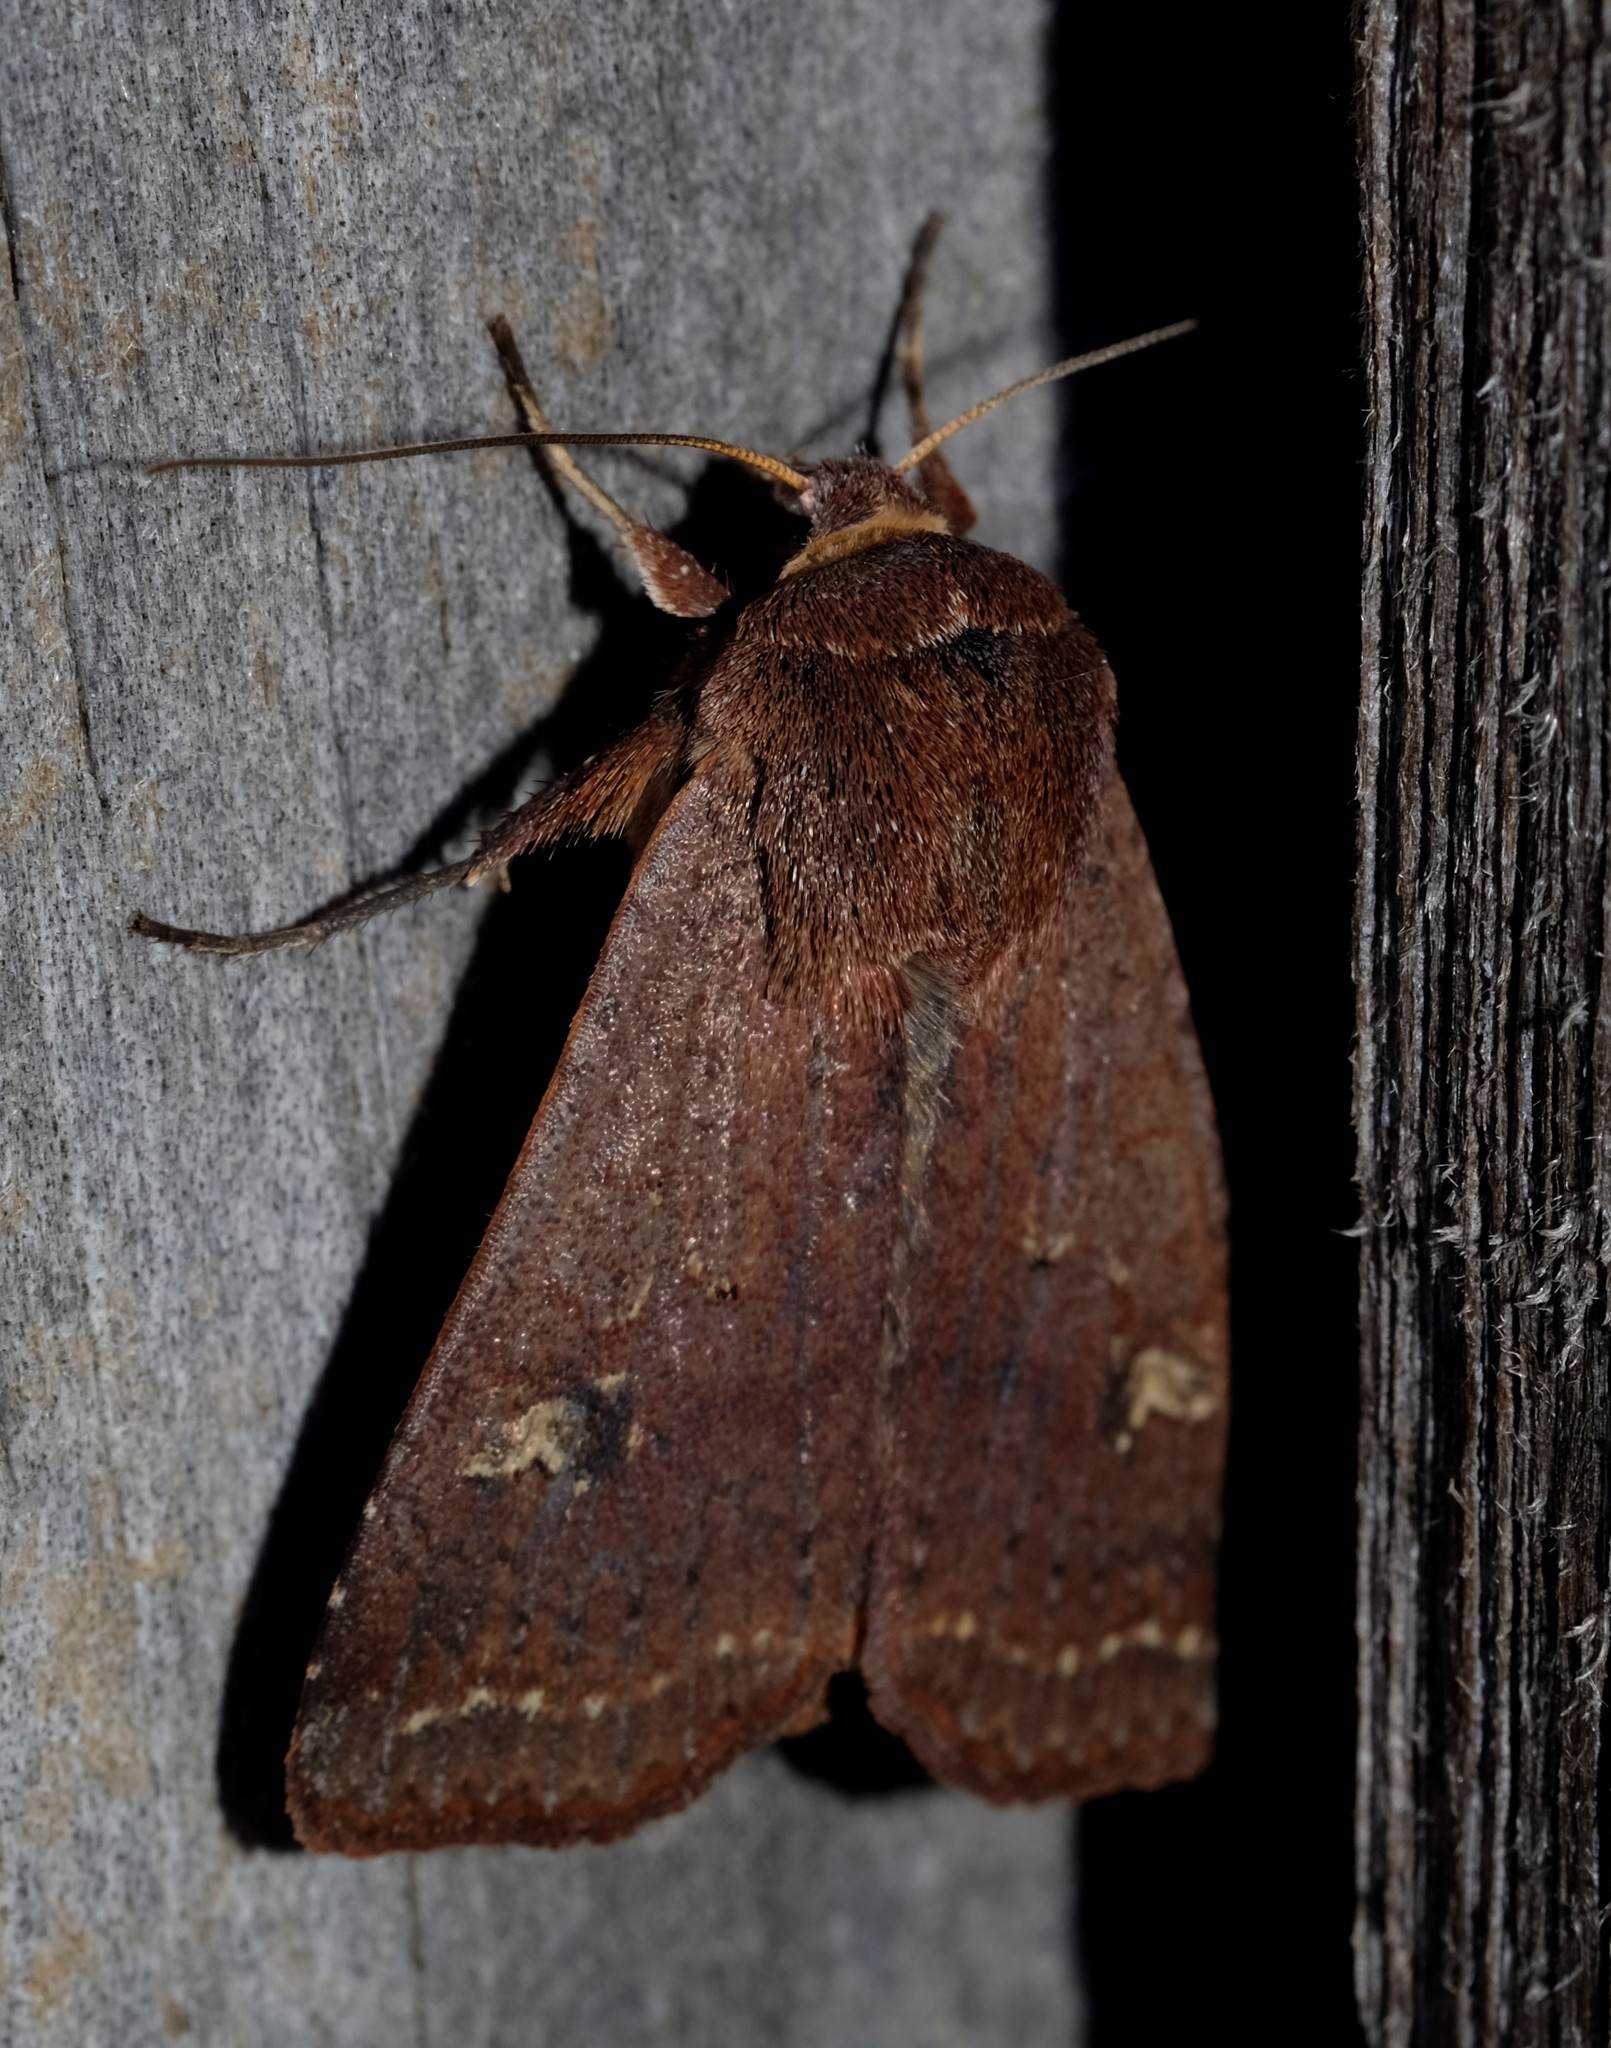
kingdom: Animalia
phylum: Arthropoda
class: Insecta
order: Lepidoptera
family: Noctuidae
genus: Diarsia
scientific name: Diarsia intermixta
